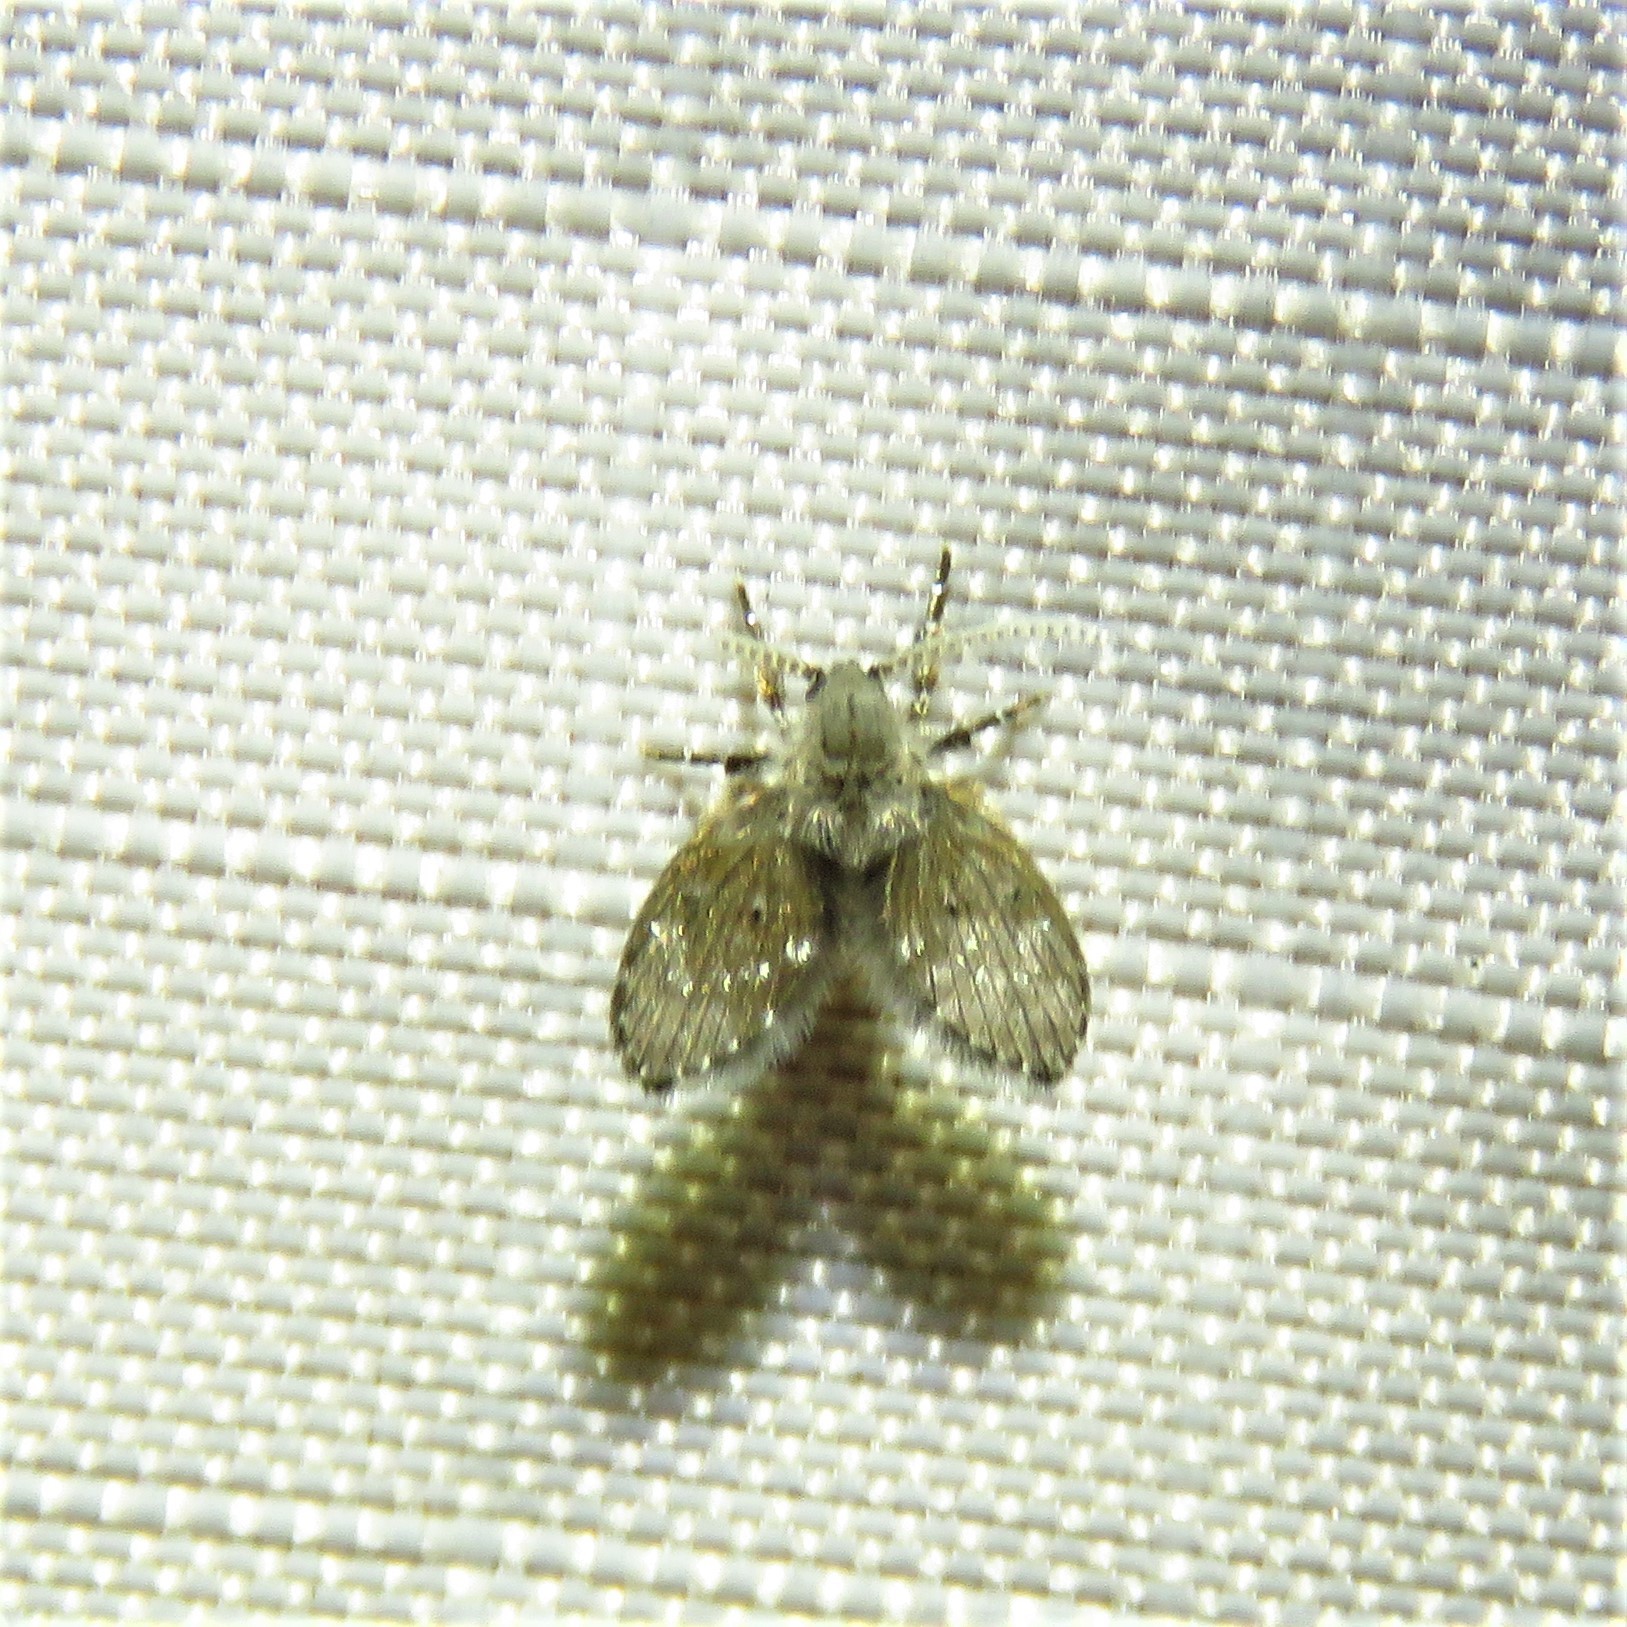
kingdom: Animalia
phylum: Arthropoda
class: Insecta
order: Diptera
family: Psychodidae
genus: Clogmia
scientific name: Clogmia albipunctatus
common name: White-spotted moth fly
